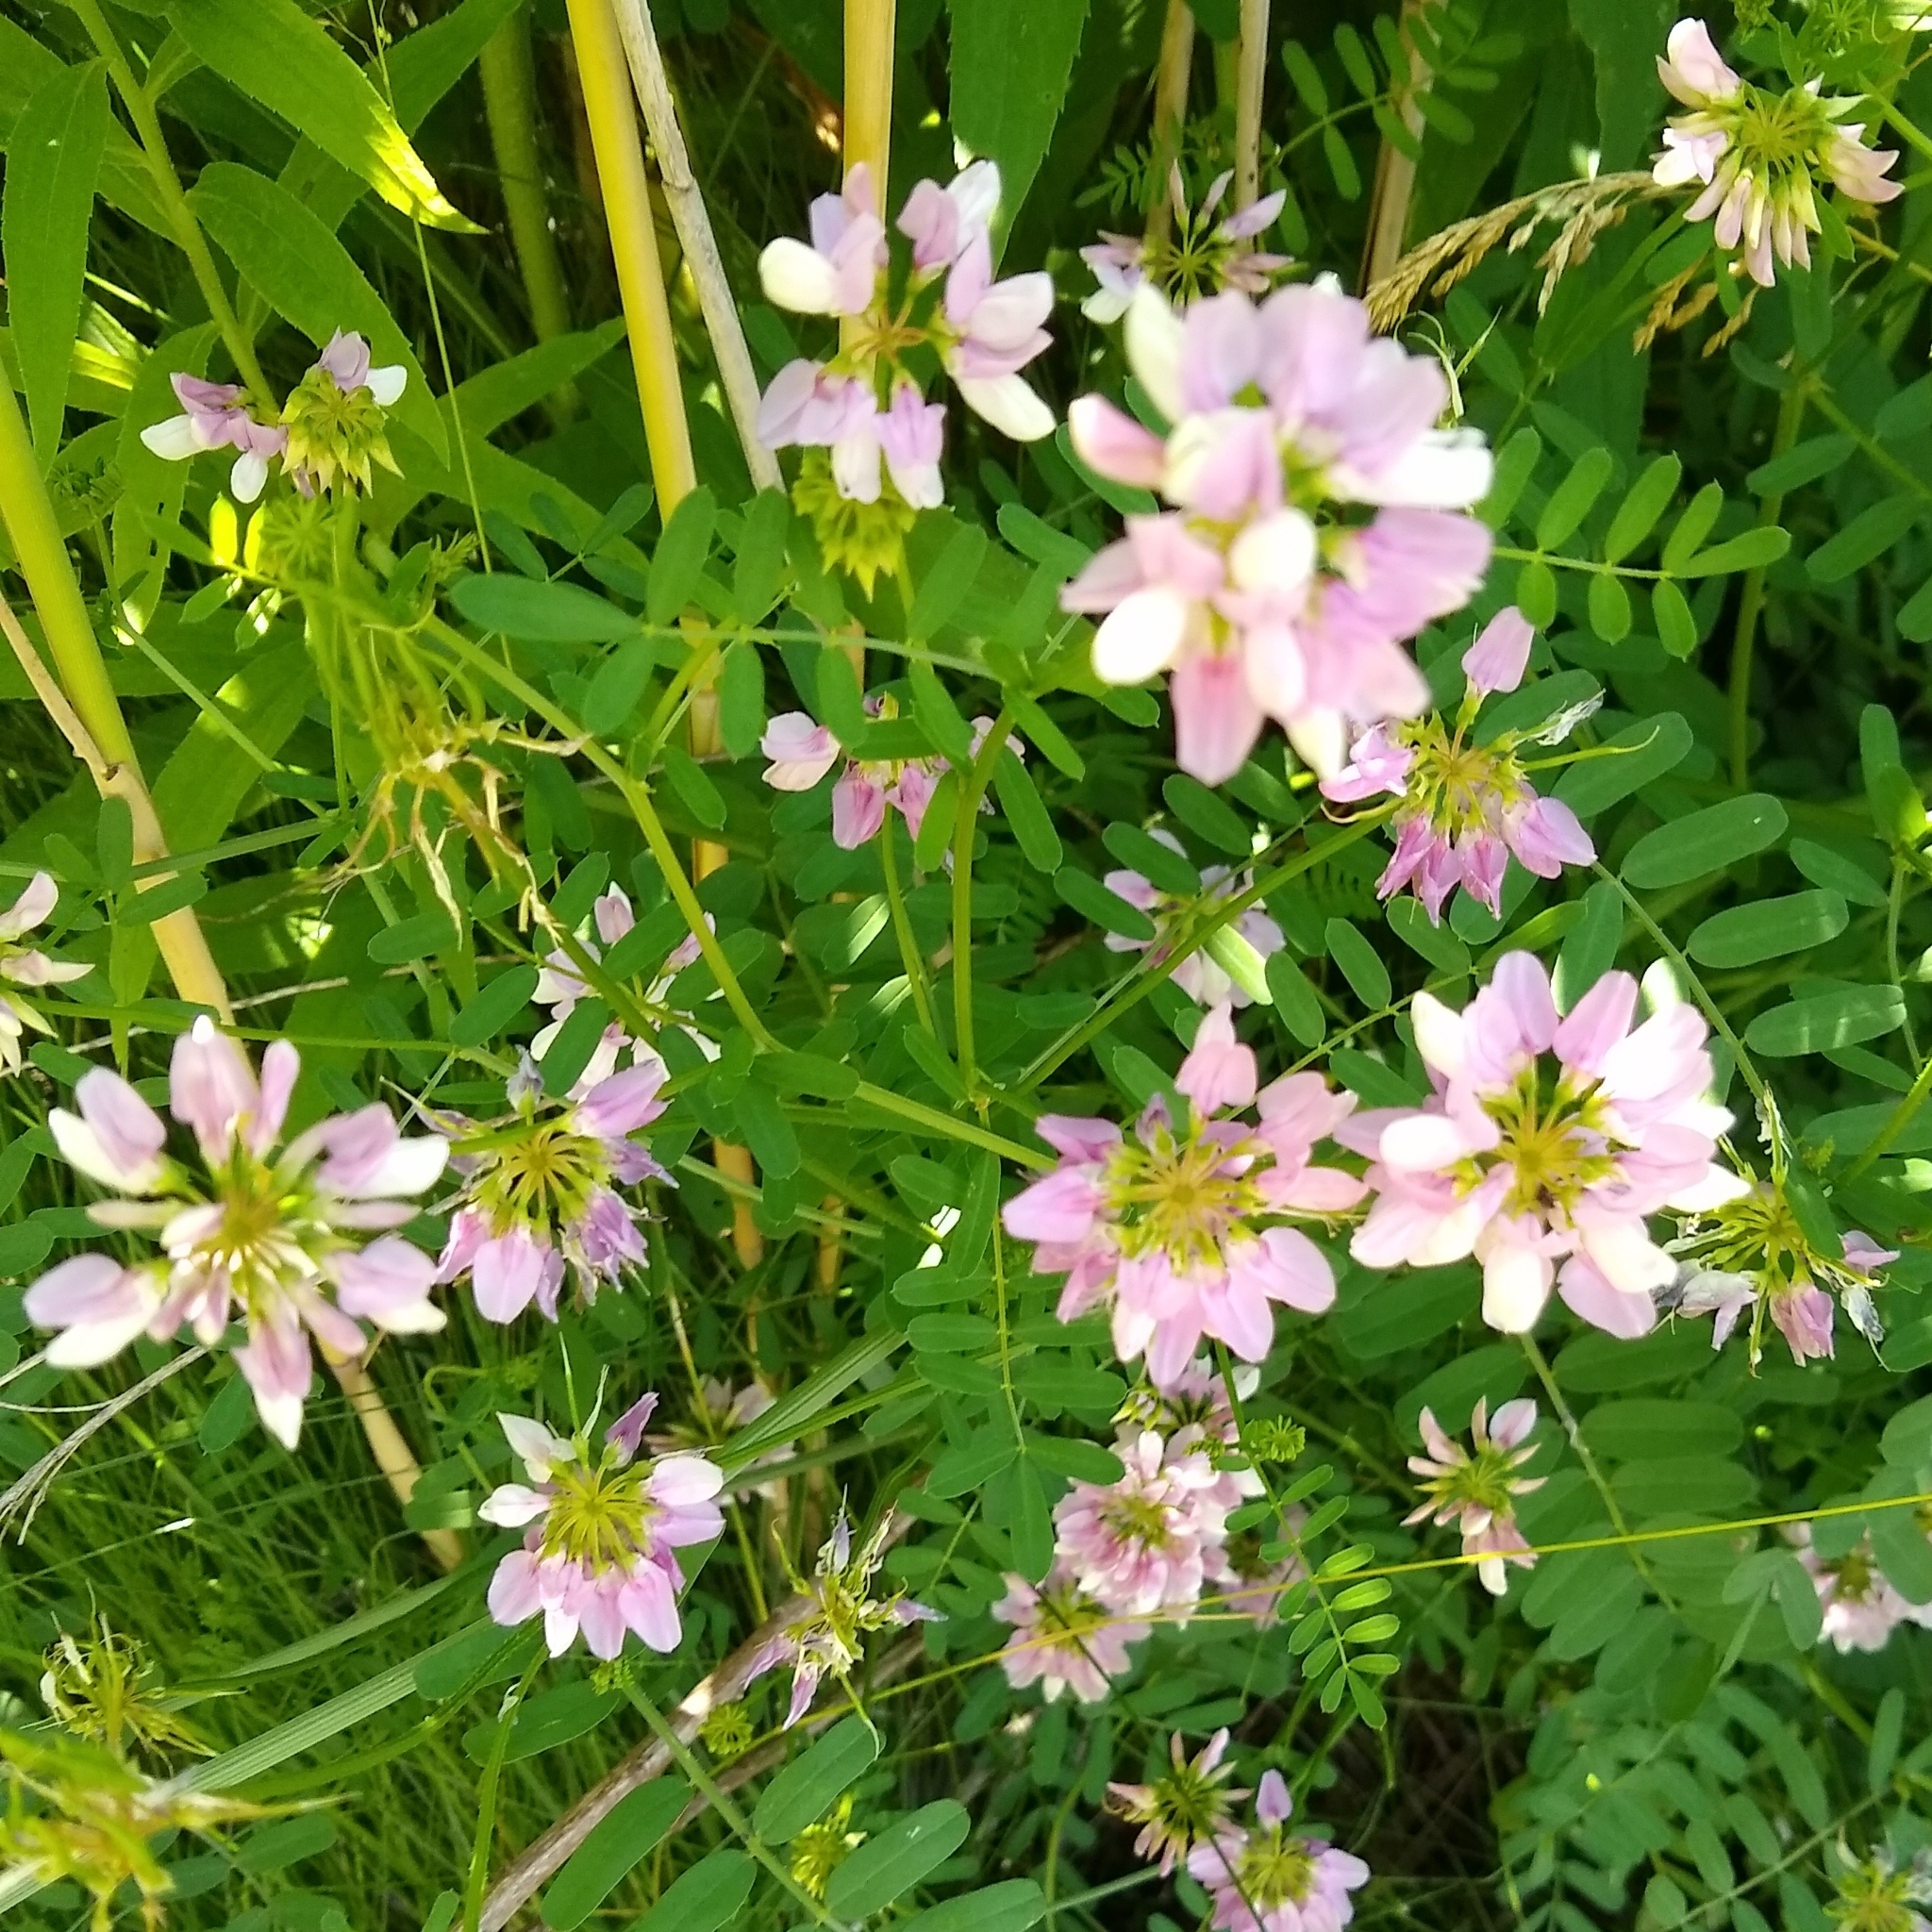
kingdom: Plantae
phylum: Tracheophyta
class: Magnoliopsida
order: Fabales
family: Fabaceae
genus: Coronilla
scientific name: Coronilla varia
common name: Crownvetch
